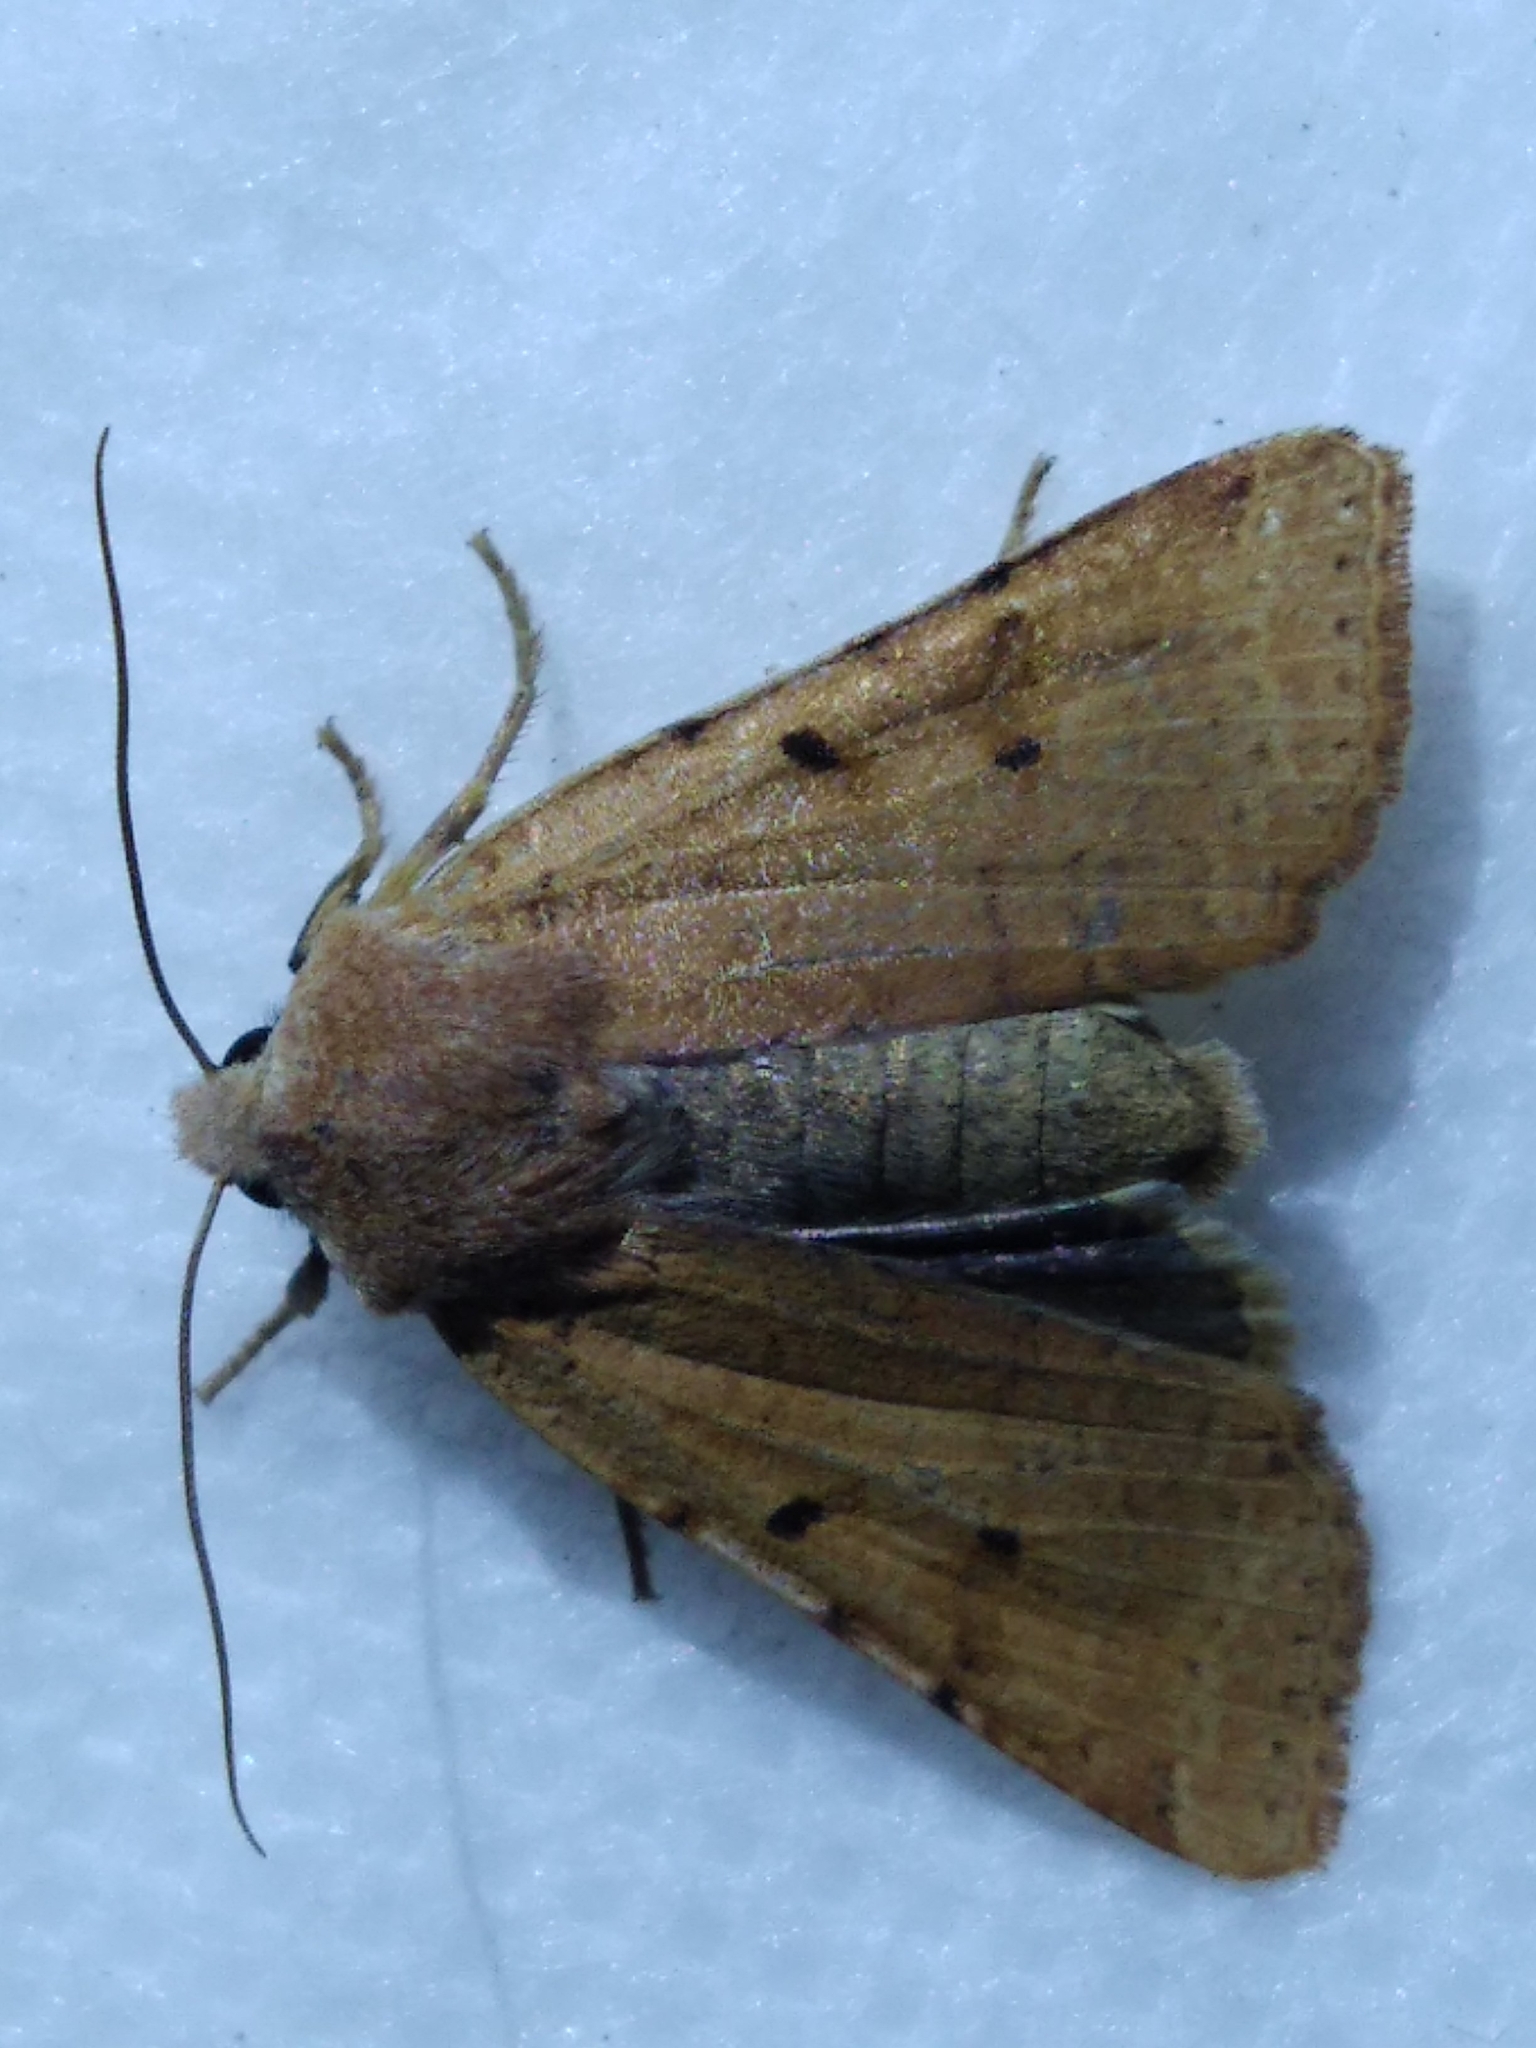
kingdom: Animalia
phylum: Arthropoda
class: Insecta
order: Lepidoptera
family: Noctuidae
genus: Agrochola
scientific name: Agrochola lychnidis
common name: Beaded chestnut
